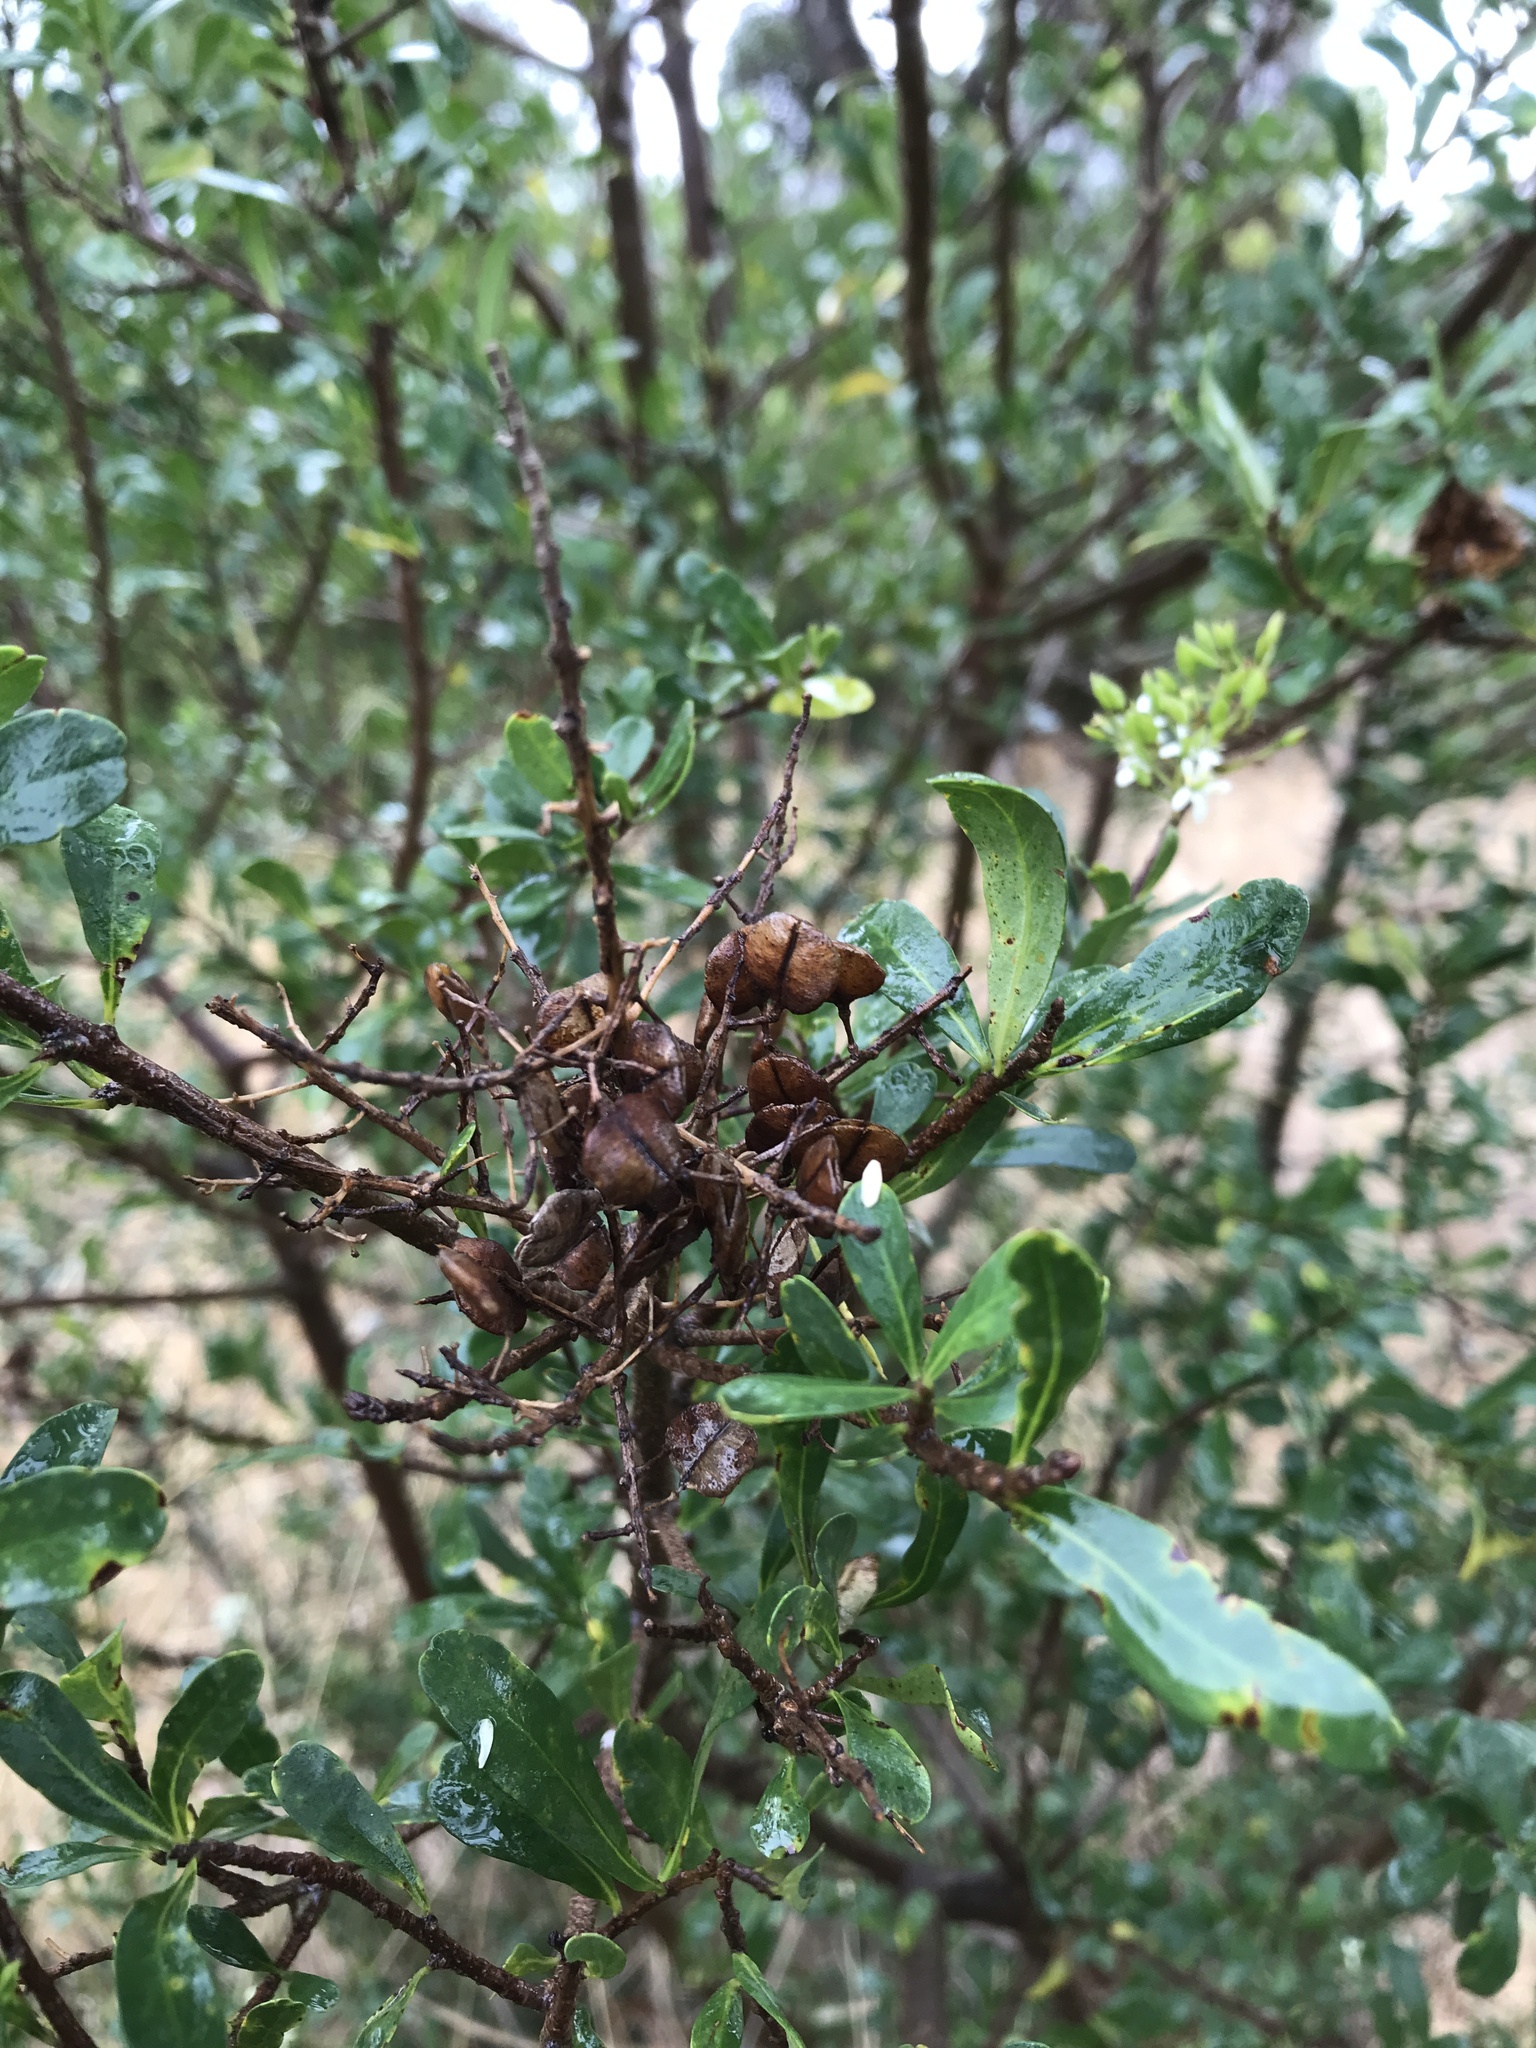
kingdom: Plantae
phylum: Tracheophyta
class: Magnoliopsida
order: Apiales
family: Pittosporaceae
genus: Bursaria
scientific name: Bursaria spinosa
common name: Australian blackthorn
